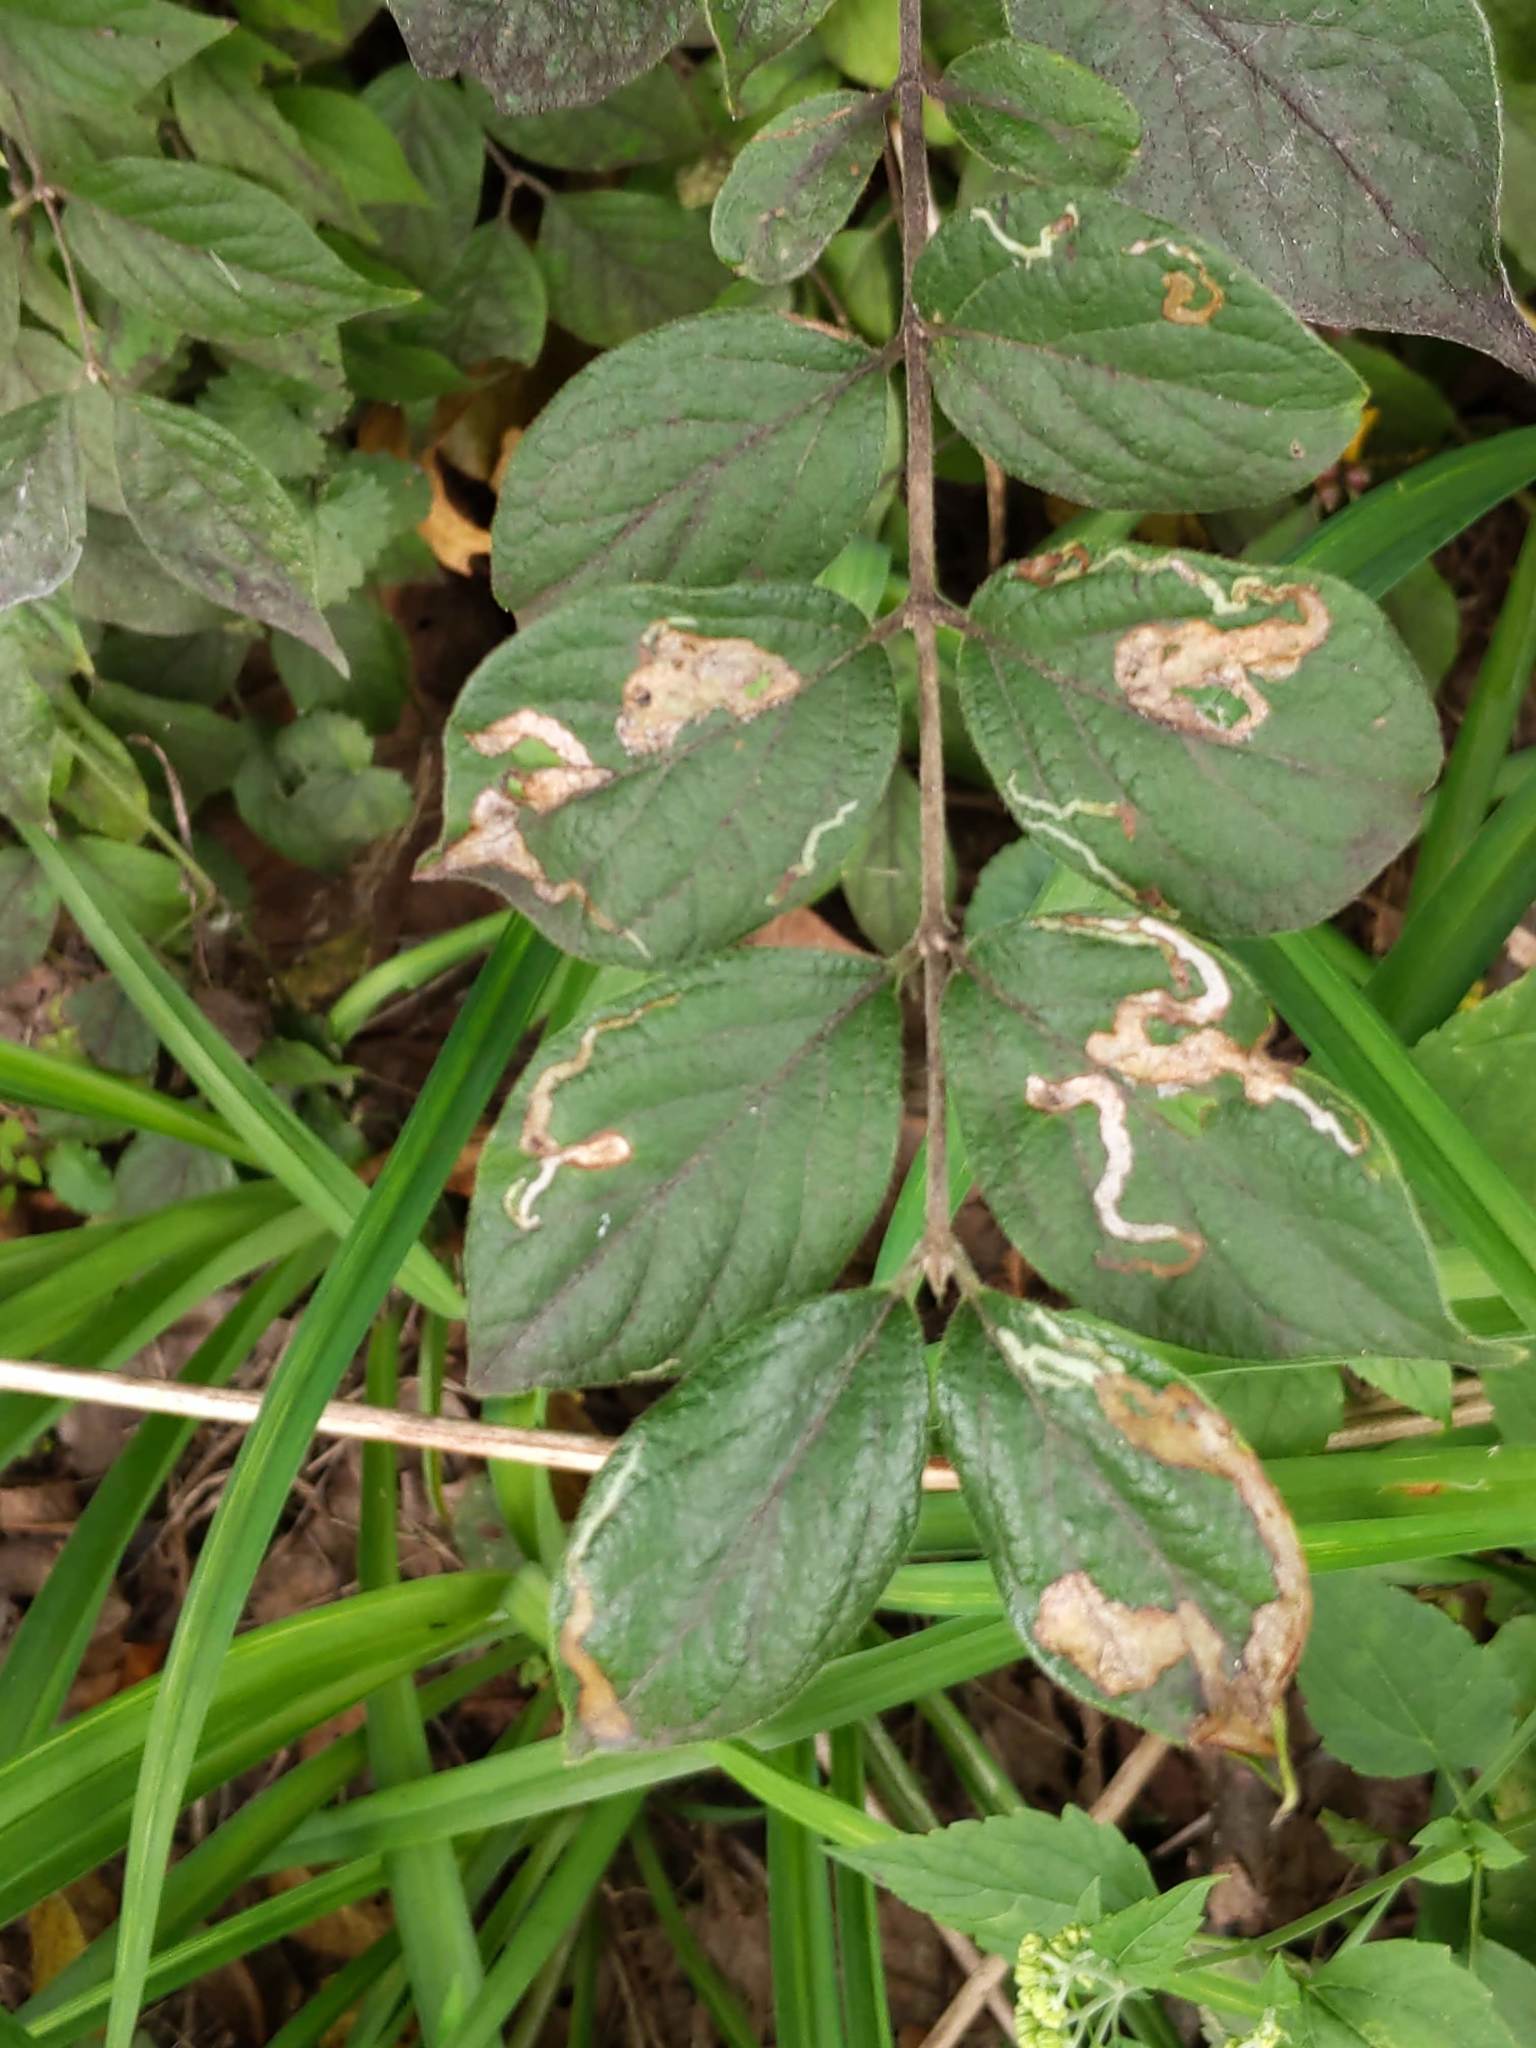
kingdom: Animalia
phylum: Arthropoda
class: Insecta
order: Diptera
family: Agromyzidae
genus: Aulagromyza
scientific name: Aulagromyza
